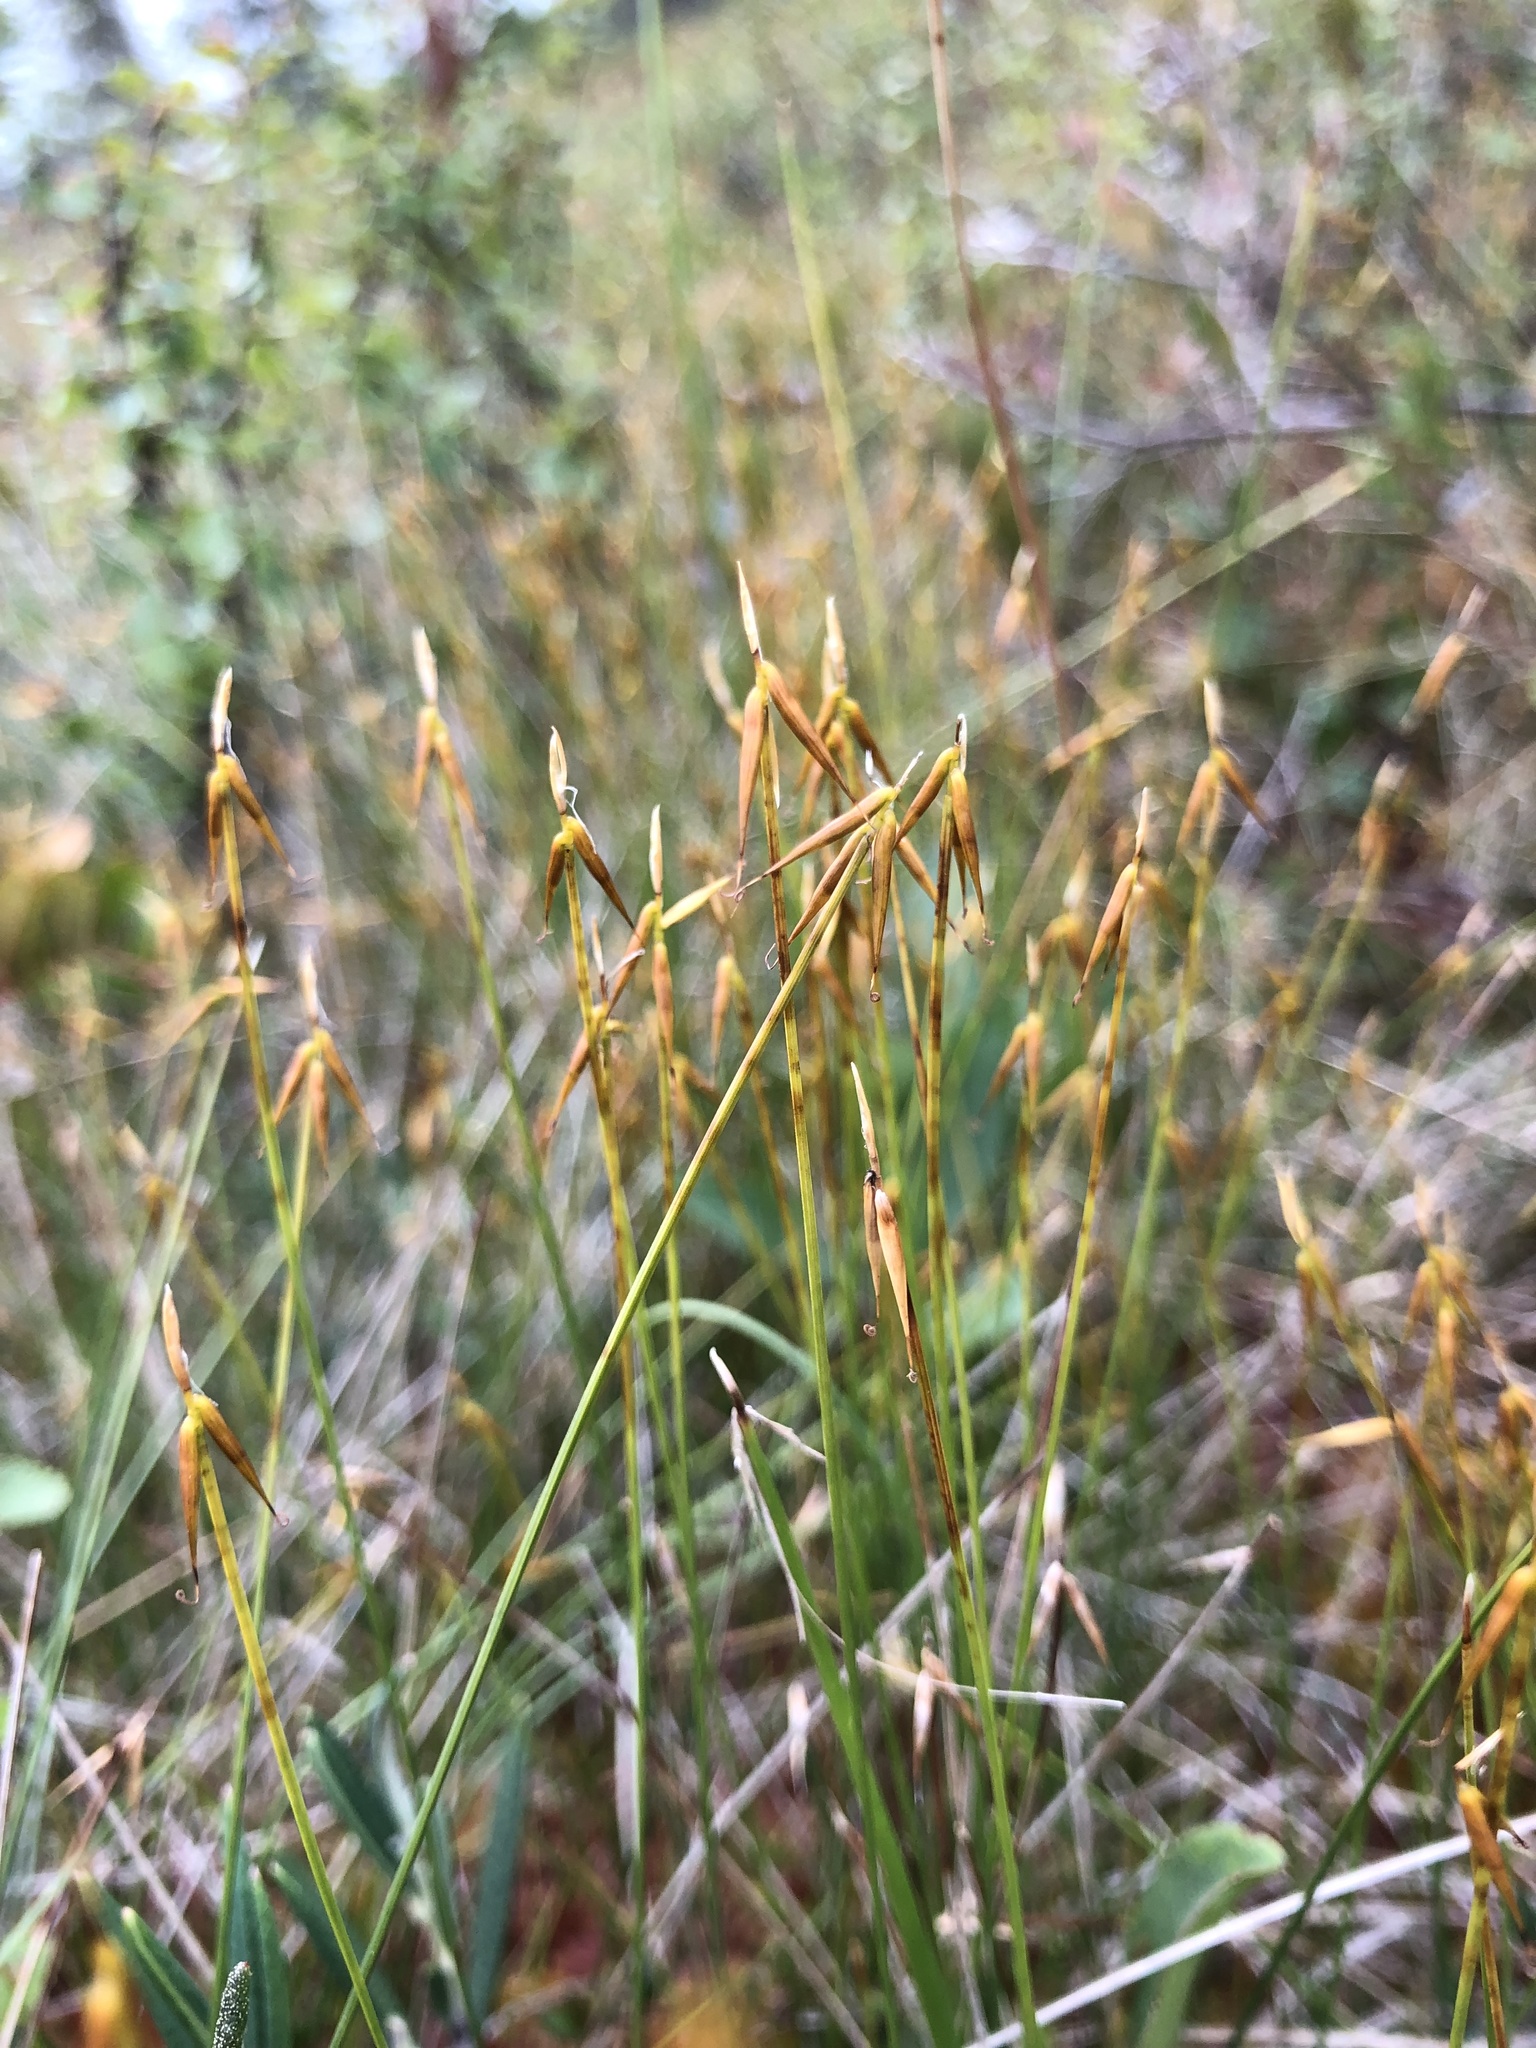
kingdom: Plantae
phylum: Tracheophyta
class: Liliopsida
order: Poales
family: Cyperaceae
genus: Carex
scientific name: Carex pauciflora
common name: Few-flowered sedge
